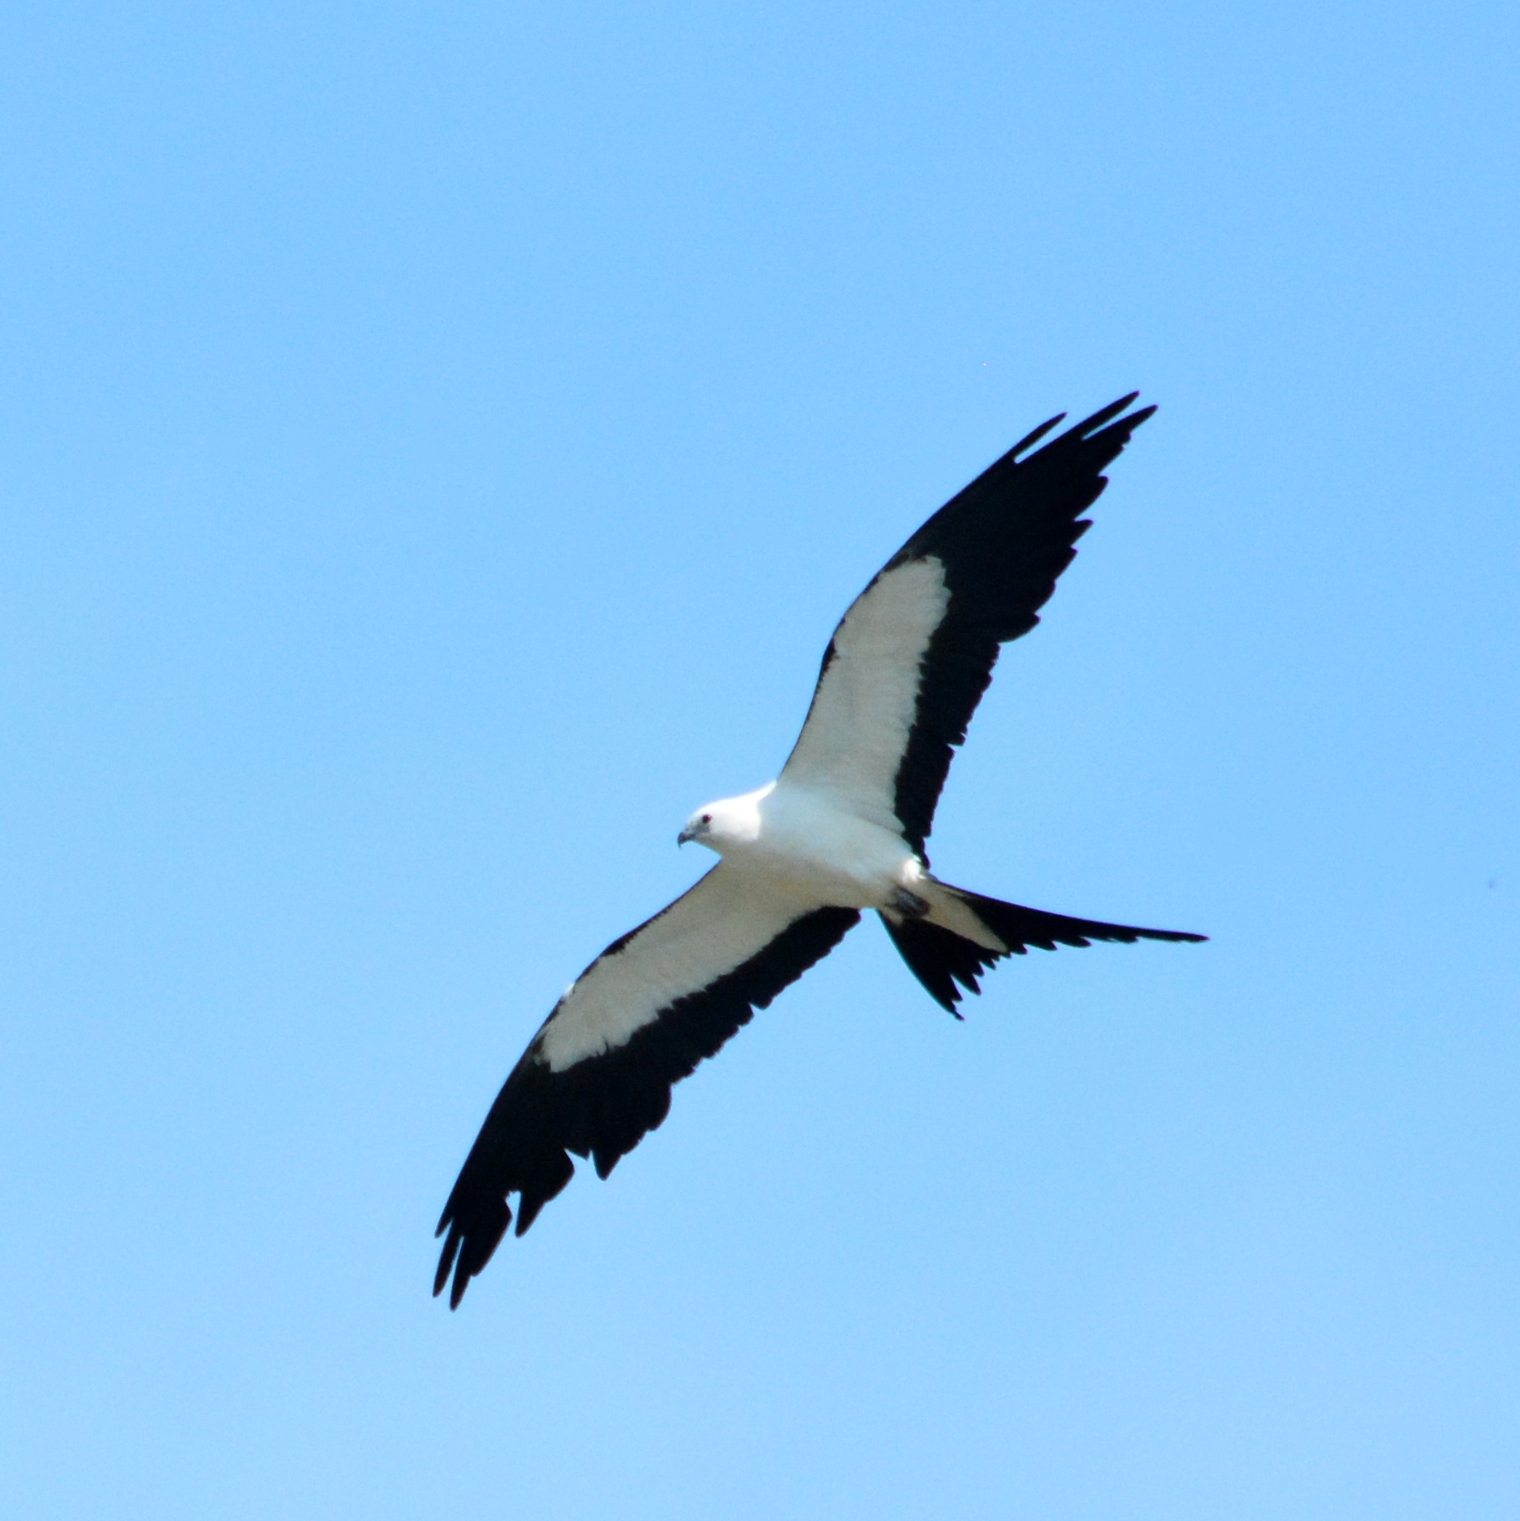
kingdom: Animalia
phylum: Chordata
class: Aves
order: Accipitriformes
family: Accipitridae
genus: Elanoides
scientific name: Elanoides forficatus
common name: Swallow-tailed kite
